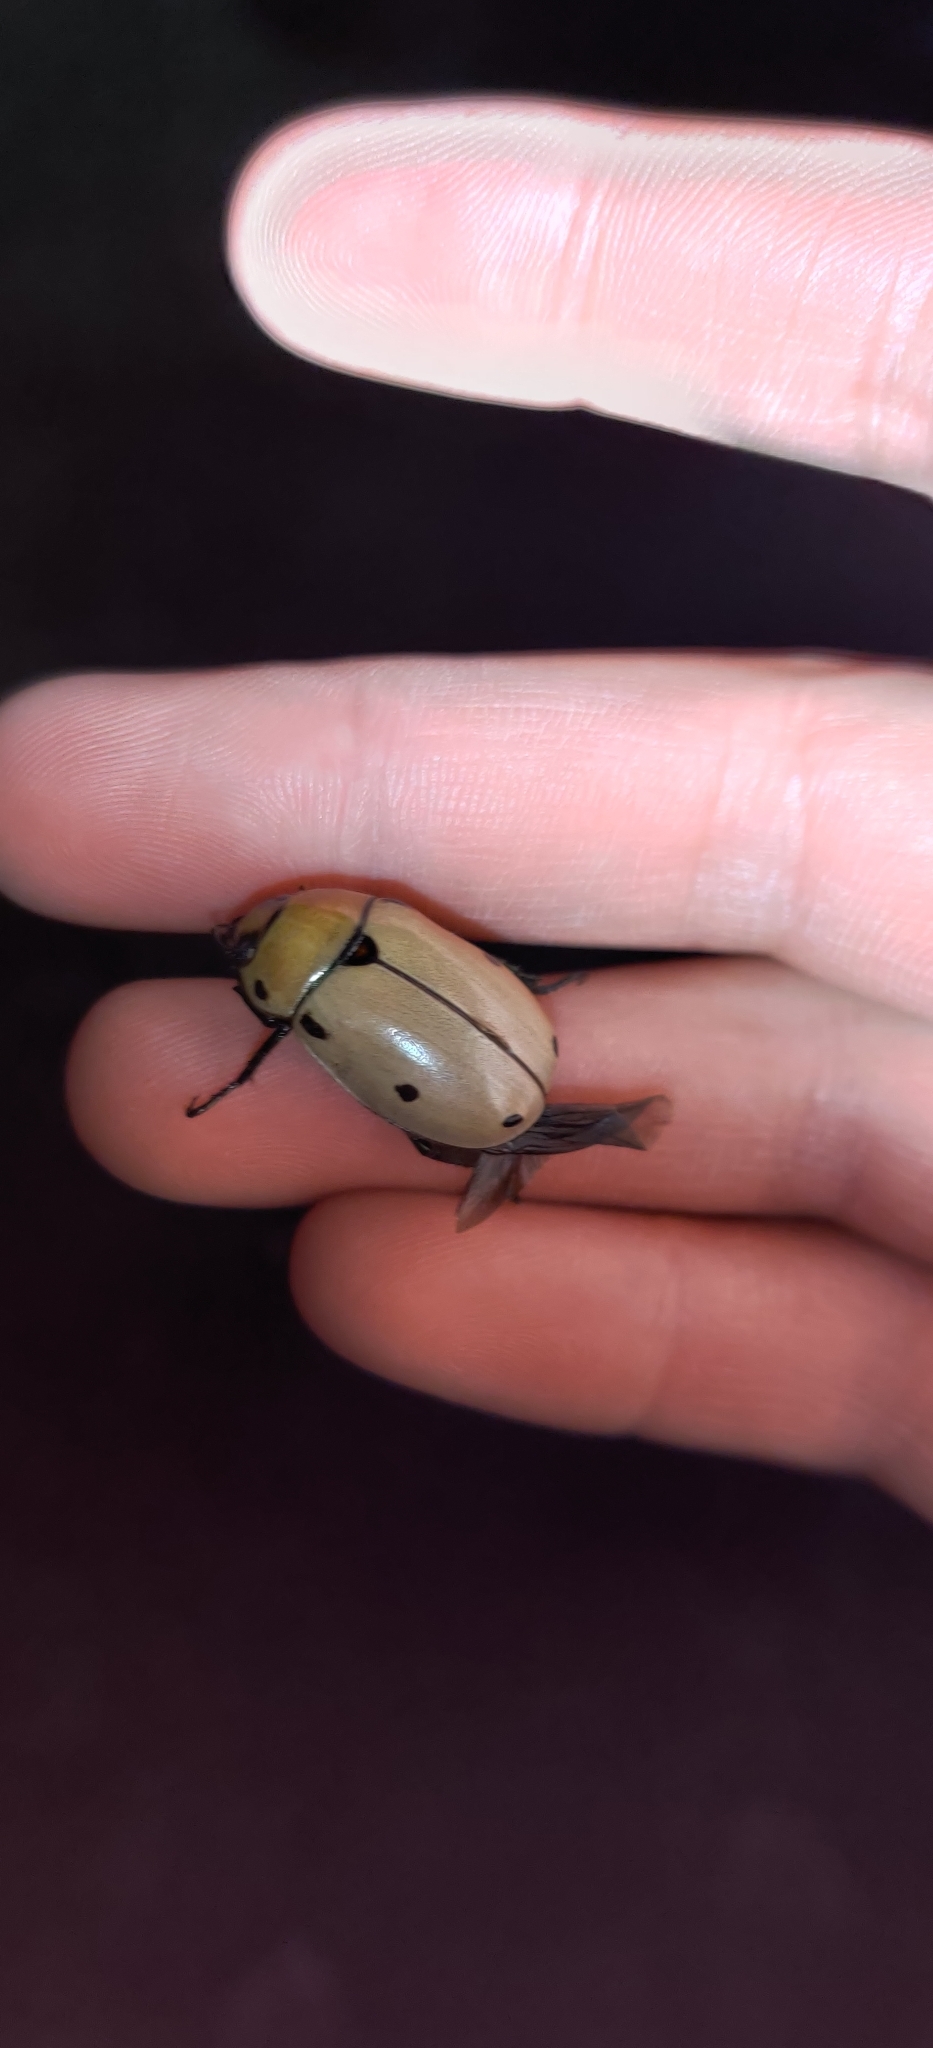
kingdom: Animalia
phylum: Arthropoda
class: Insecta
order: Coleoptera
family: Scarabaeidae
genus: Pelidnota
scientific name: Pelidnota punctata
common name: Grapevine beetle
